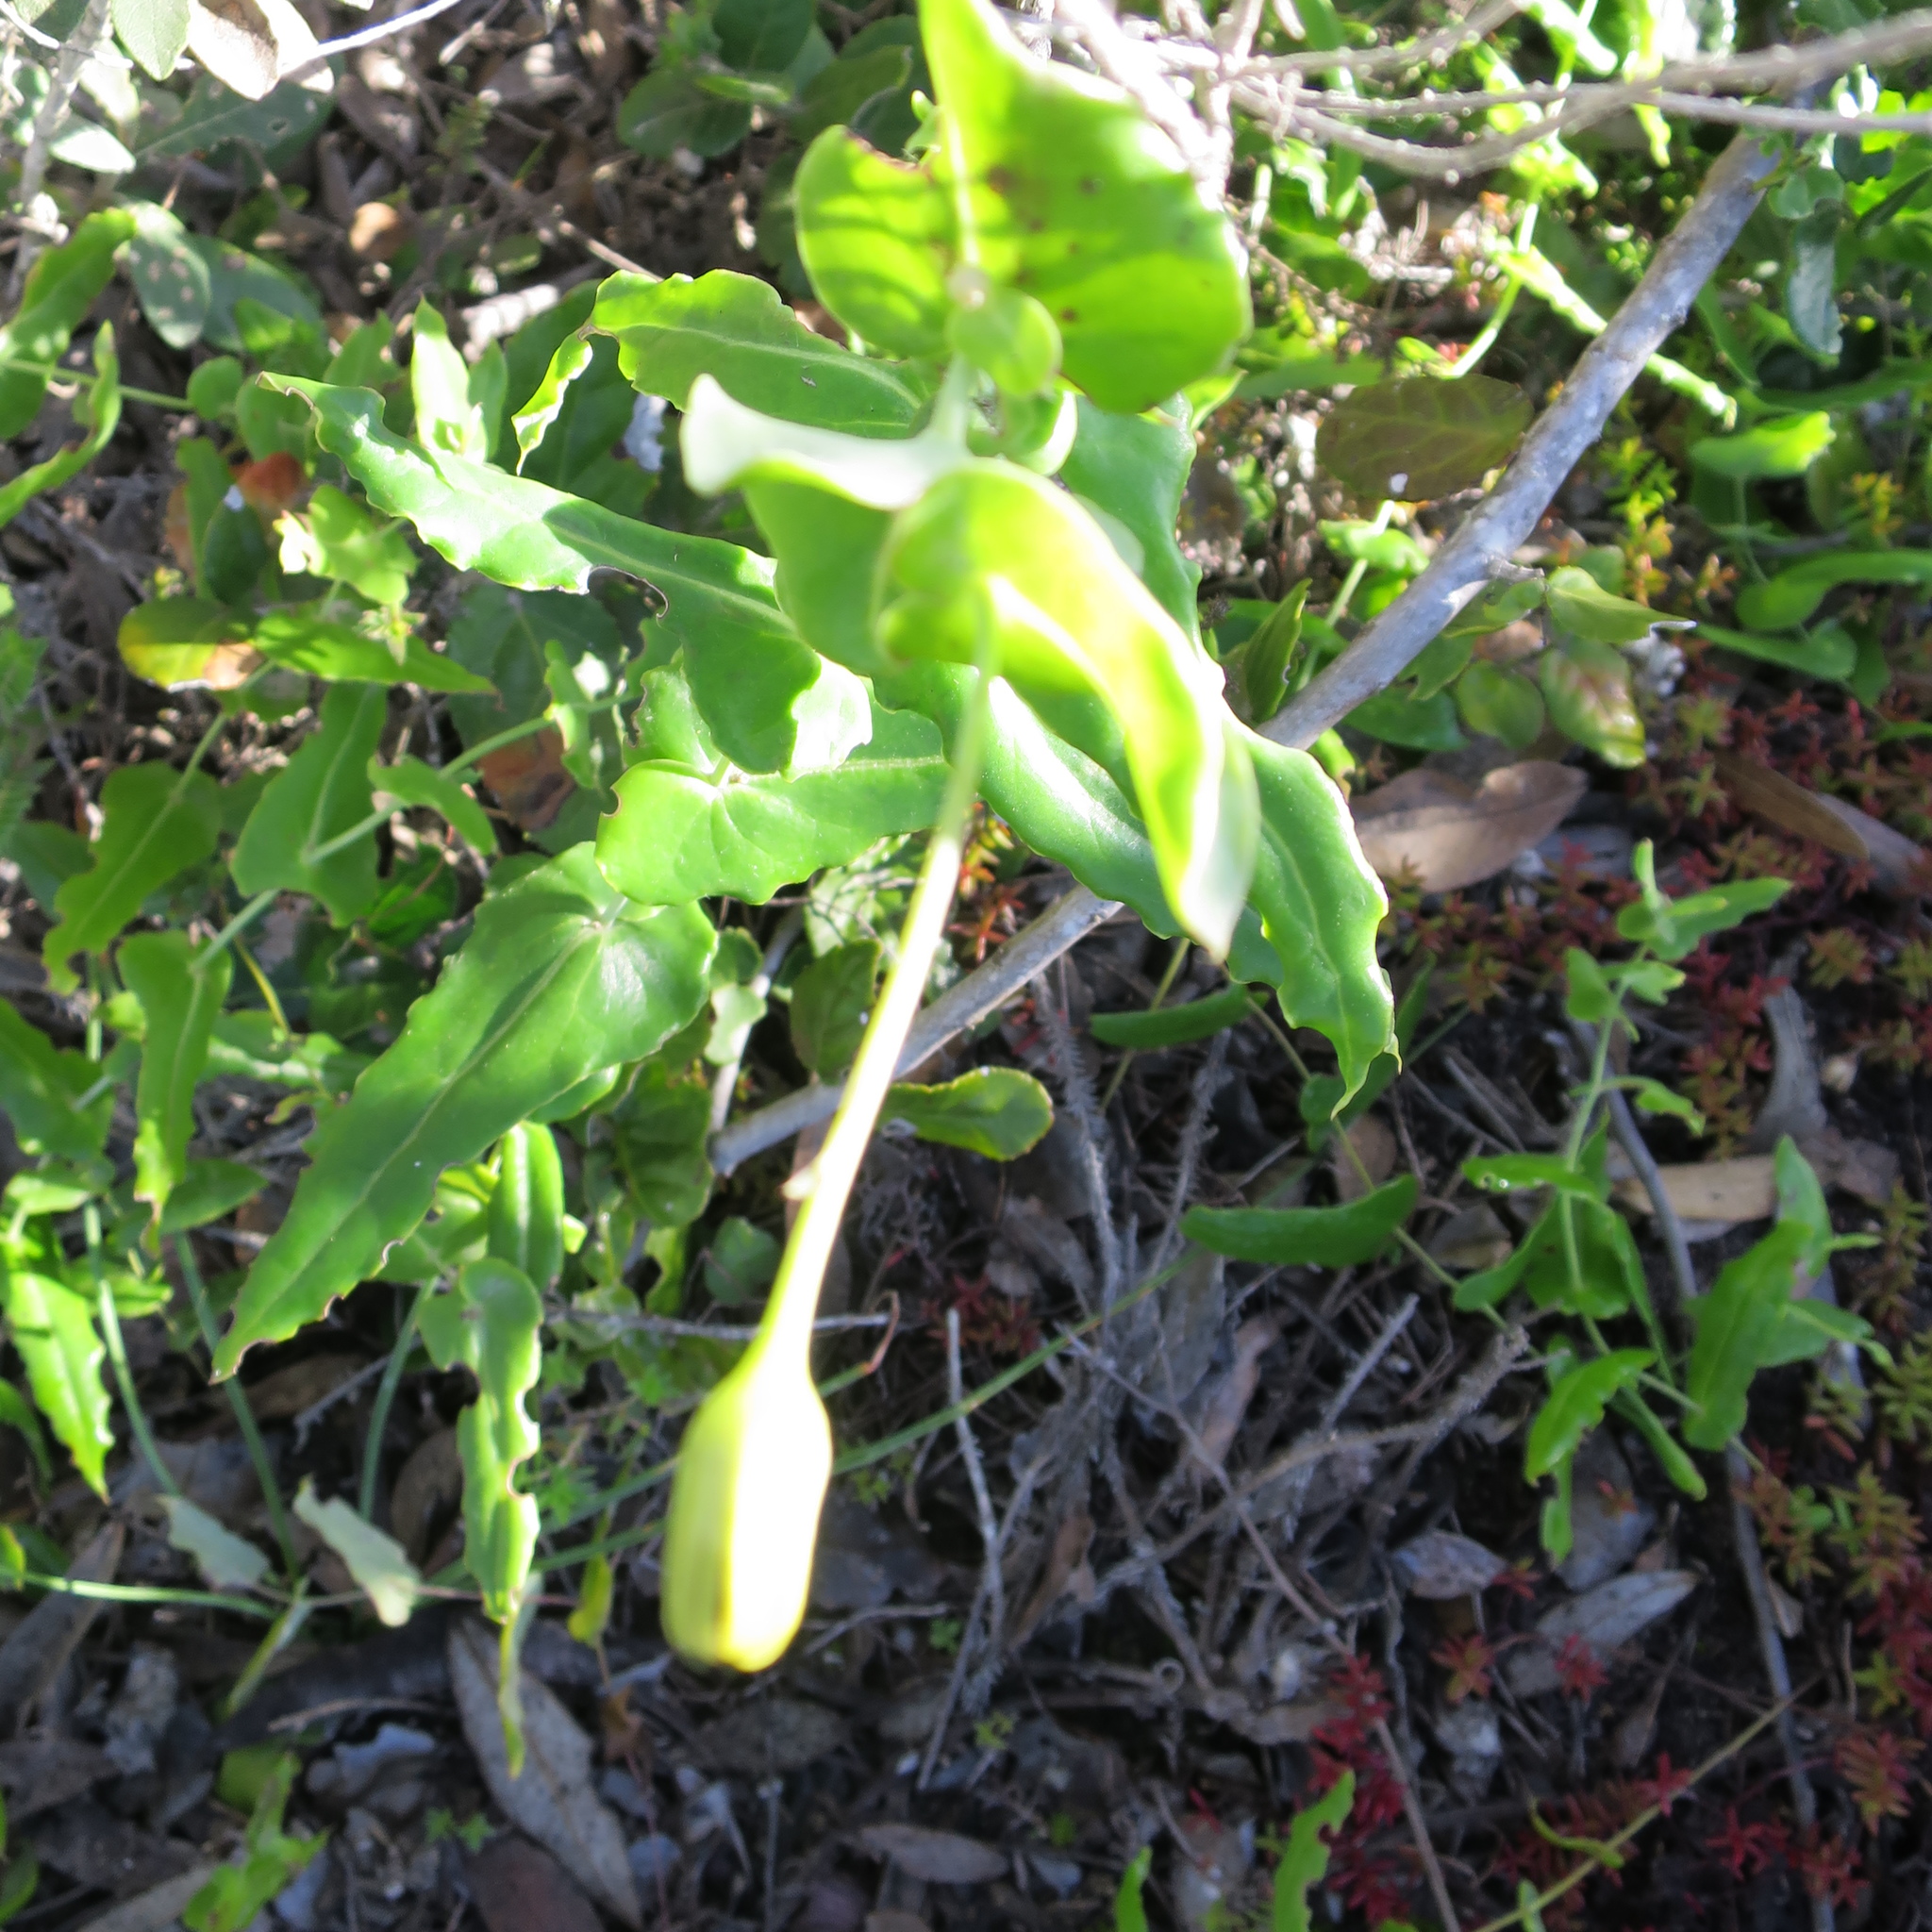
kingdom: Plantae
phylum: Tracheophyta
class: Magnoliopsida
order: Asterales
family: Asteraceae
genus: Othonna
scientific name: Othonna undulosa
